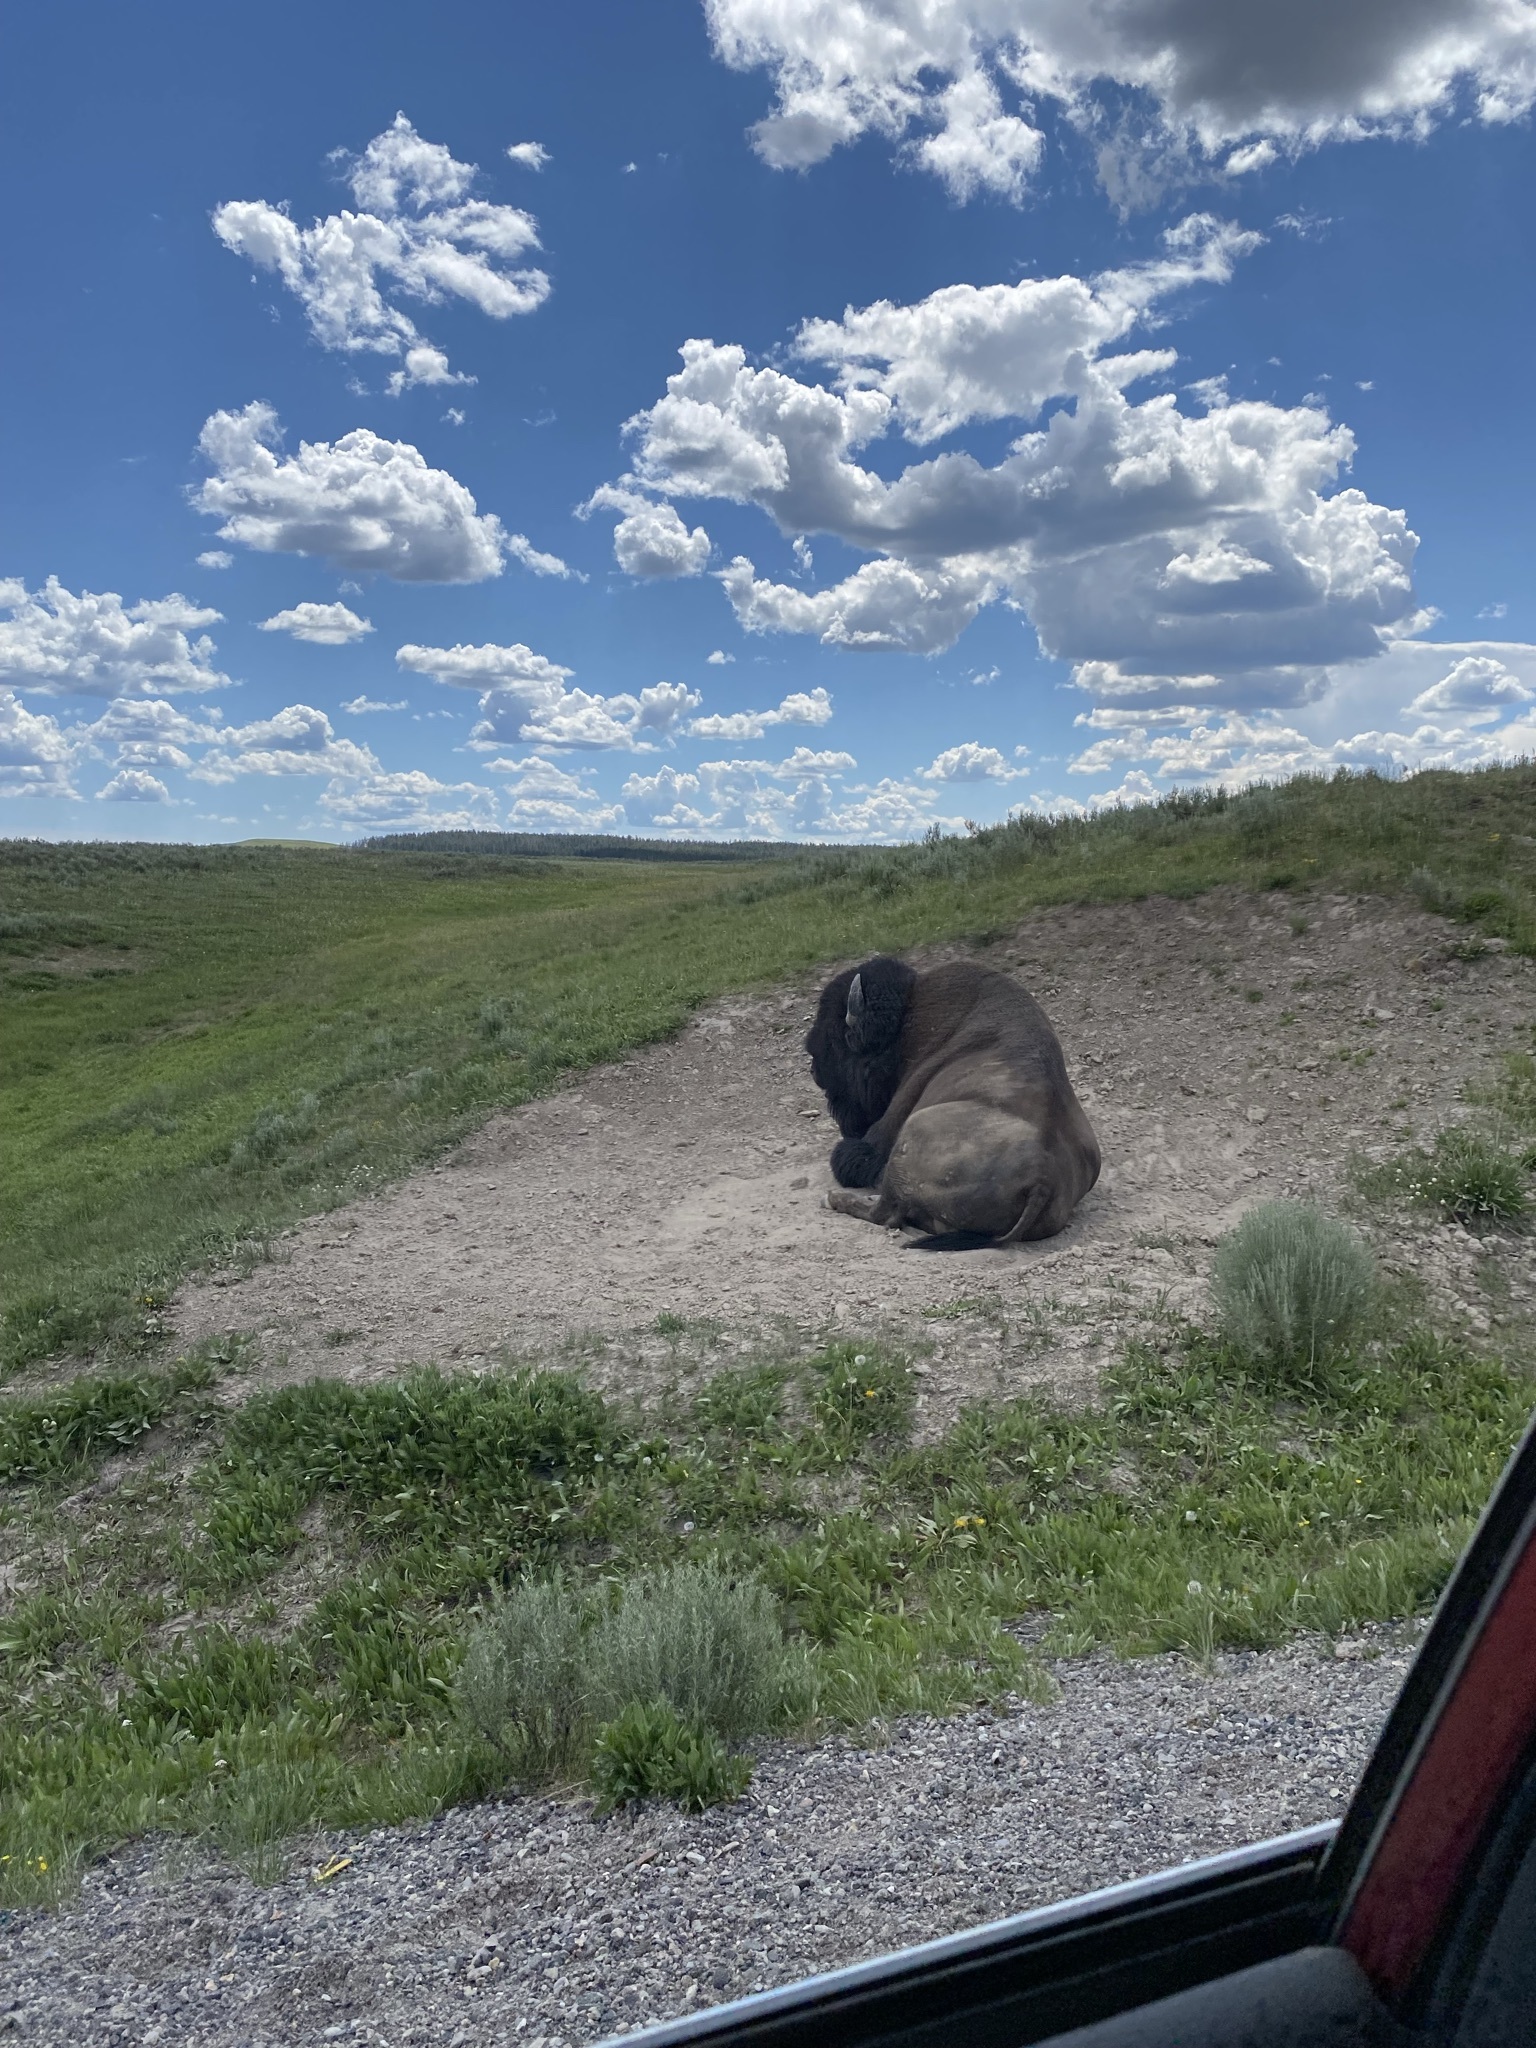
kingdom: Animalia
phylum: Chordata
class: Mammalia
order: Artiodactyla
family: Bovidae
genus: Bison
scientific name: Bison bison
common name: American bison
